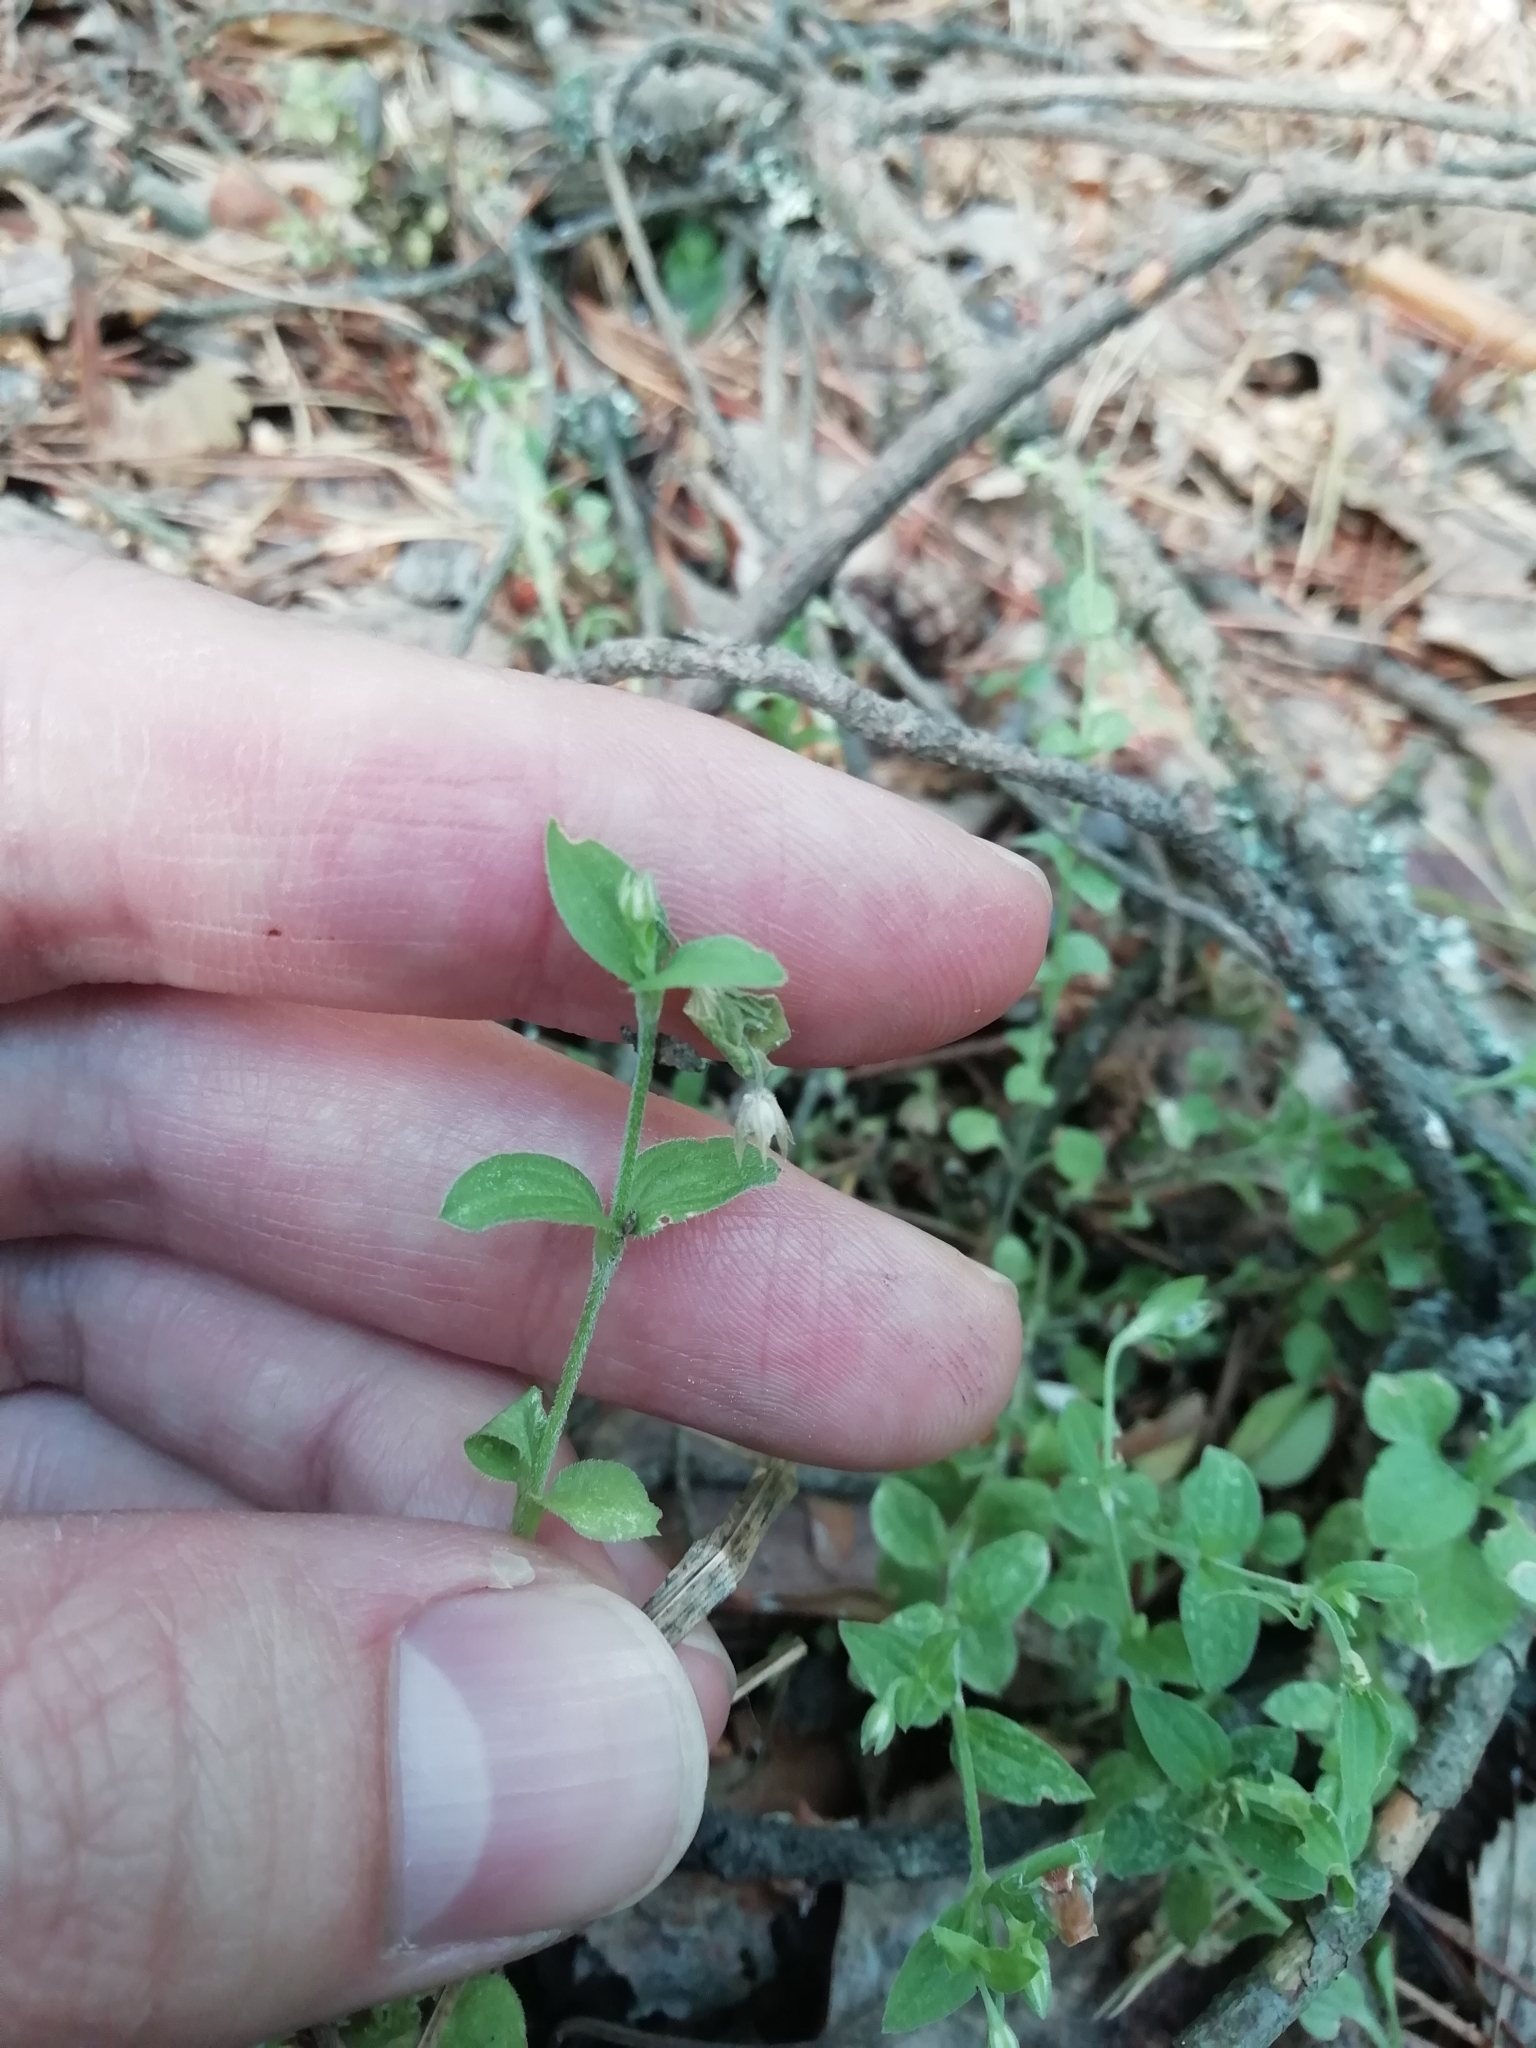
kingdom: Plantae
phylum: Tracheophyta
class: Magnoliopsida
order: Caryophyllales
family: Caryophyllaceae
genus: Moehringia
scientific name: Moehringia trinervia
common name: Three-nerved sandwort
